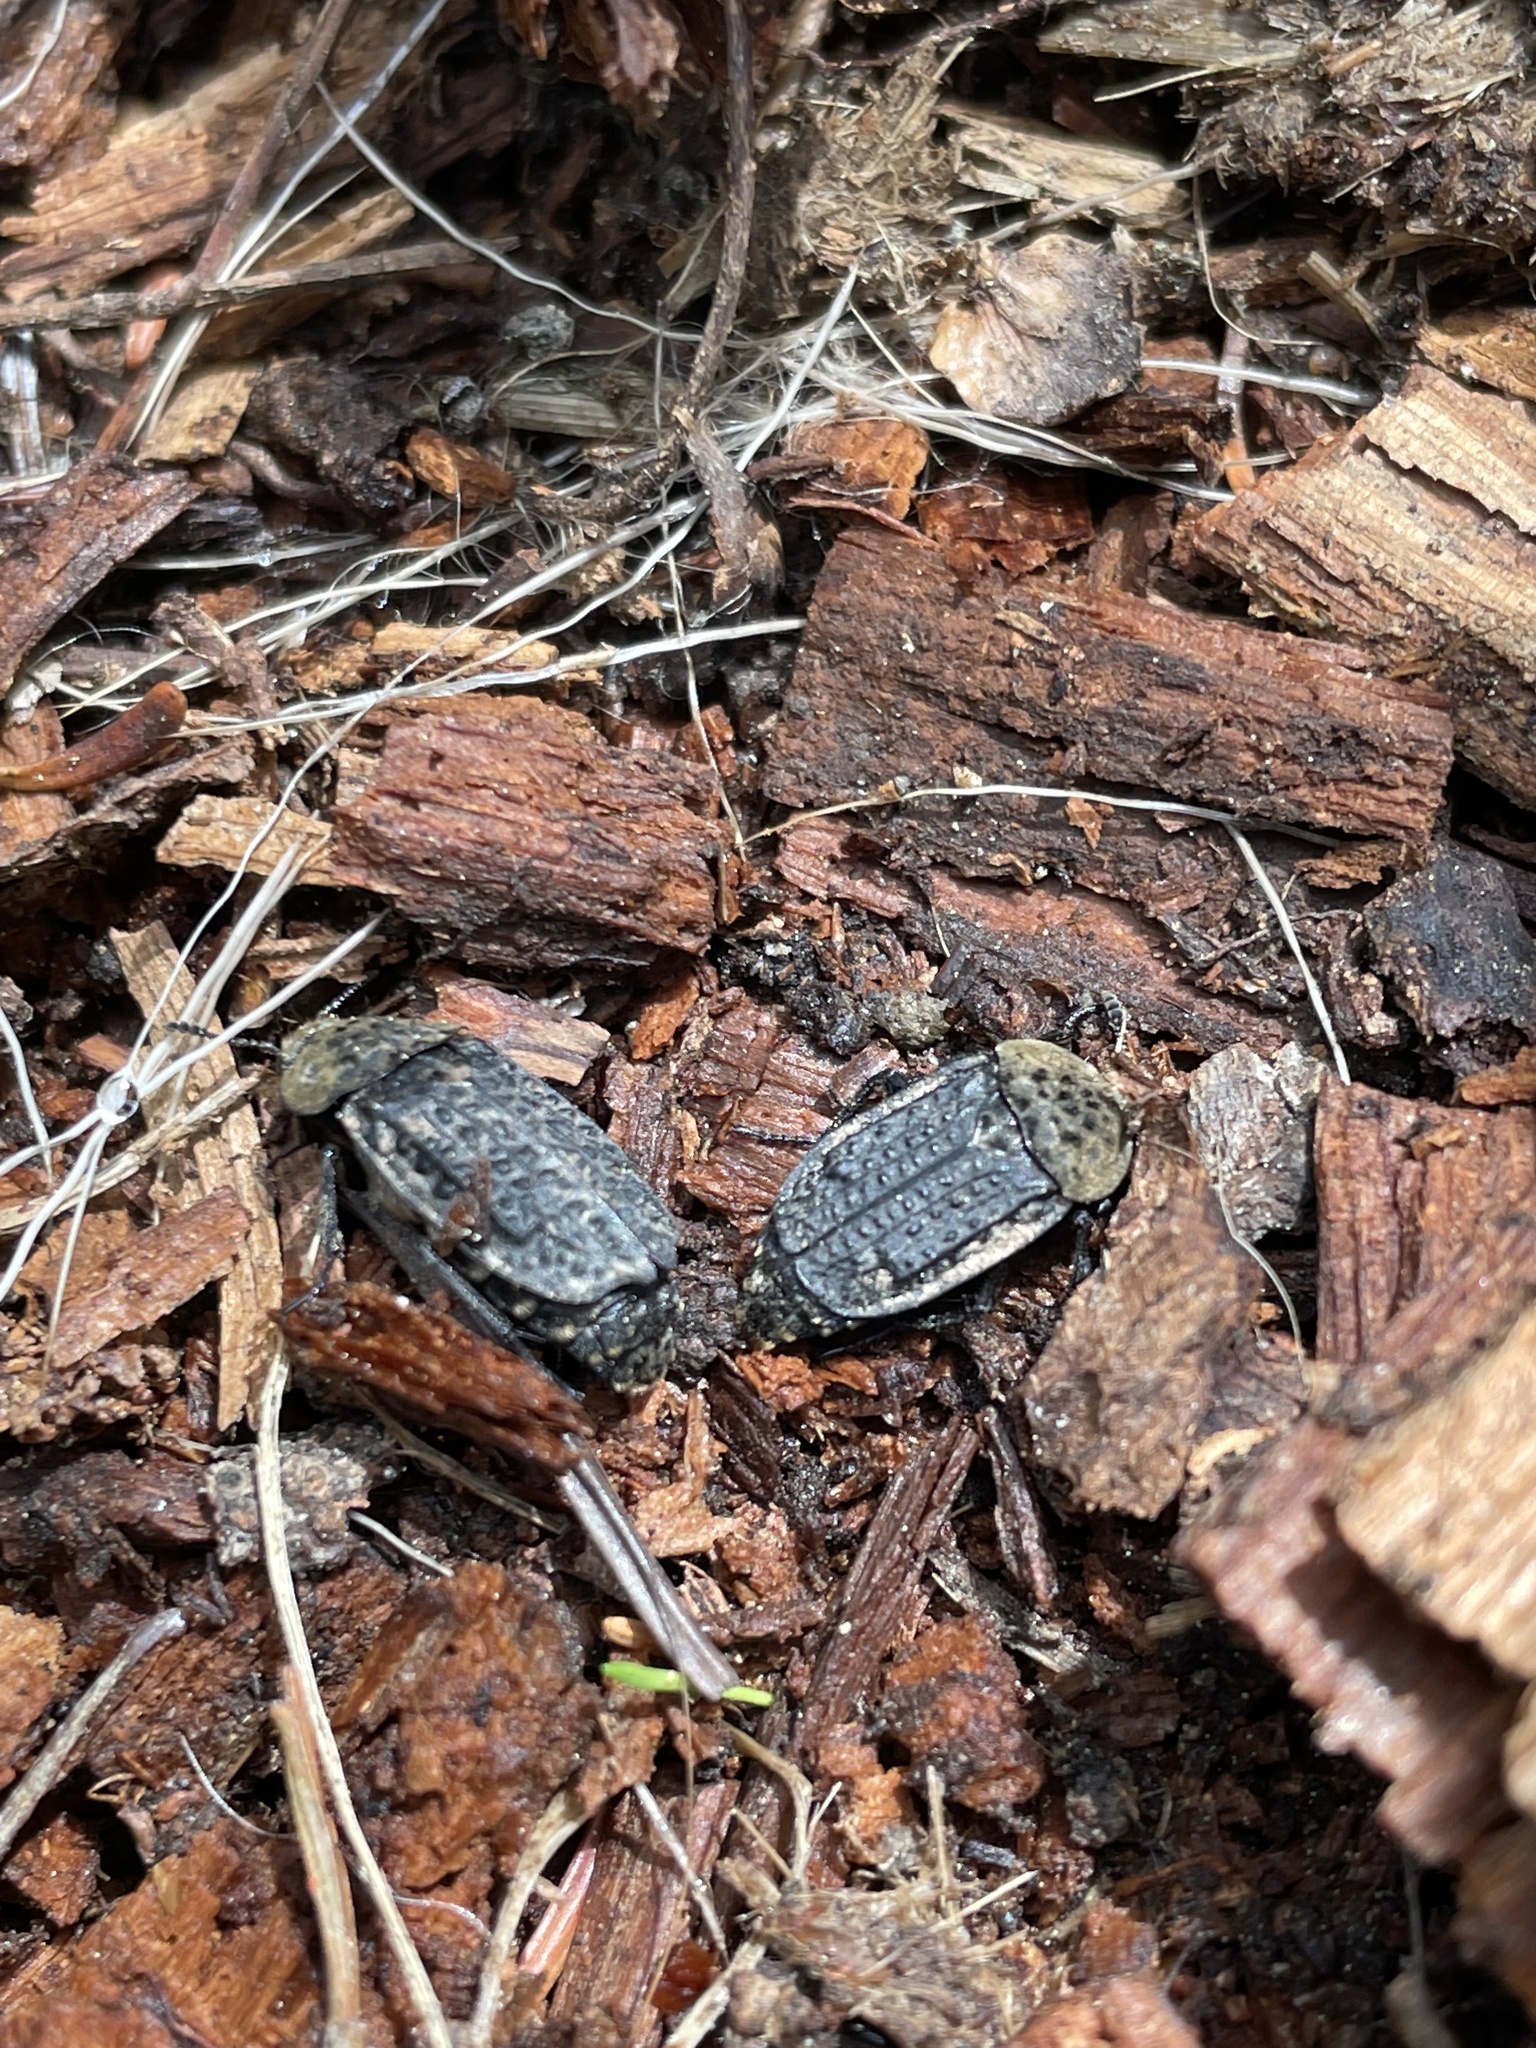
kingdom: Animalia
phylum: Arthropoda
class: Insecta
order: Coleoptera
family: Staphylinidae
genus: Thanatophilus
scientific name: Thanatophilus lapponicus
